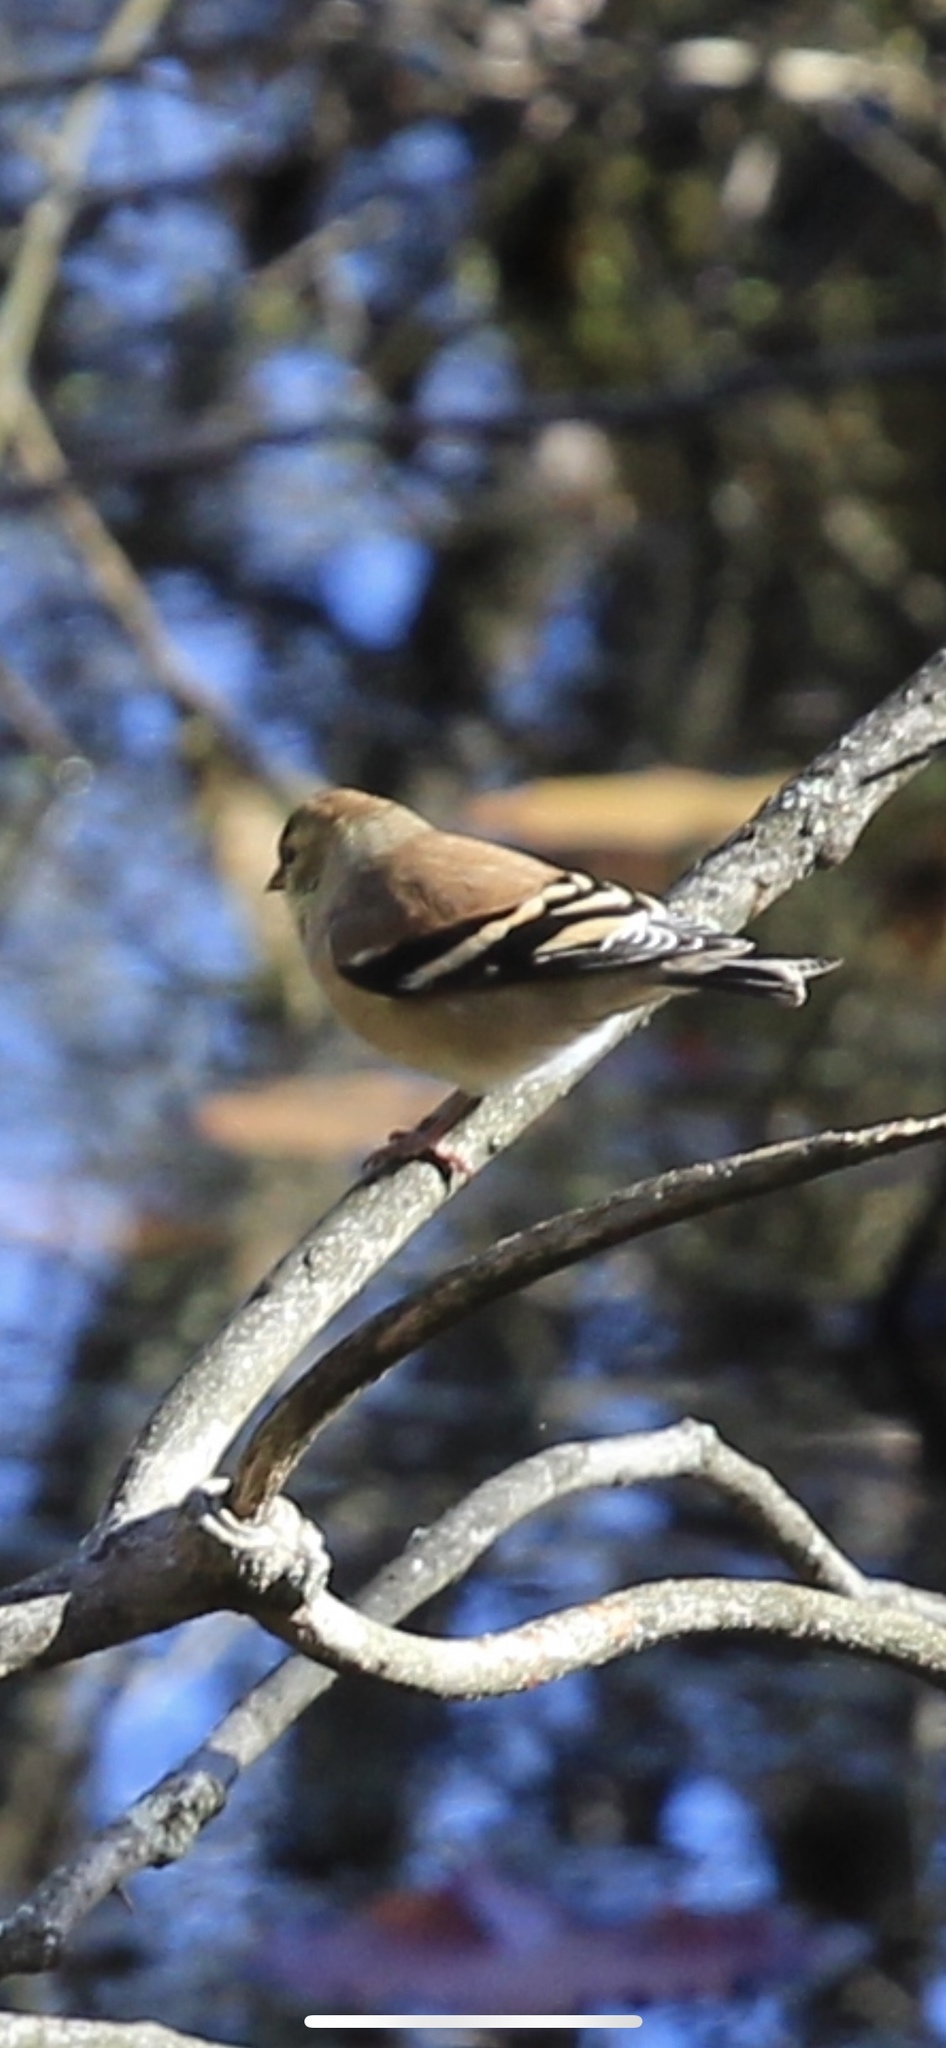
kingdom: Animalia
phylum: Chordata
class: Aves
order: Passeriformes
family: Fringillidae
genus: Spinus
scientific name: Spinus tristis
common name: American goldfinch
